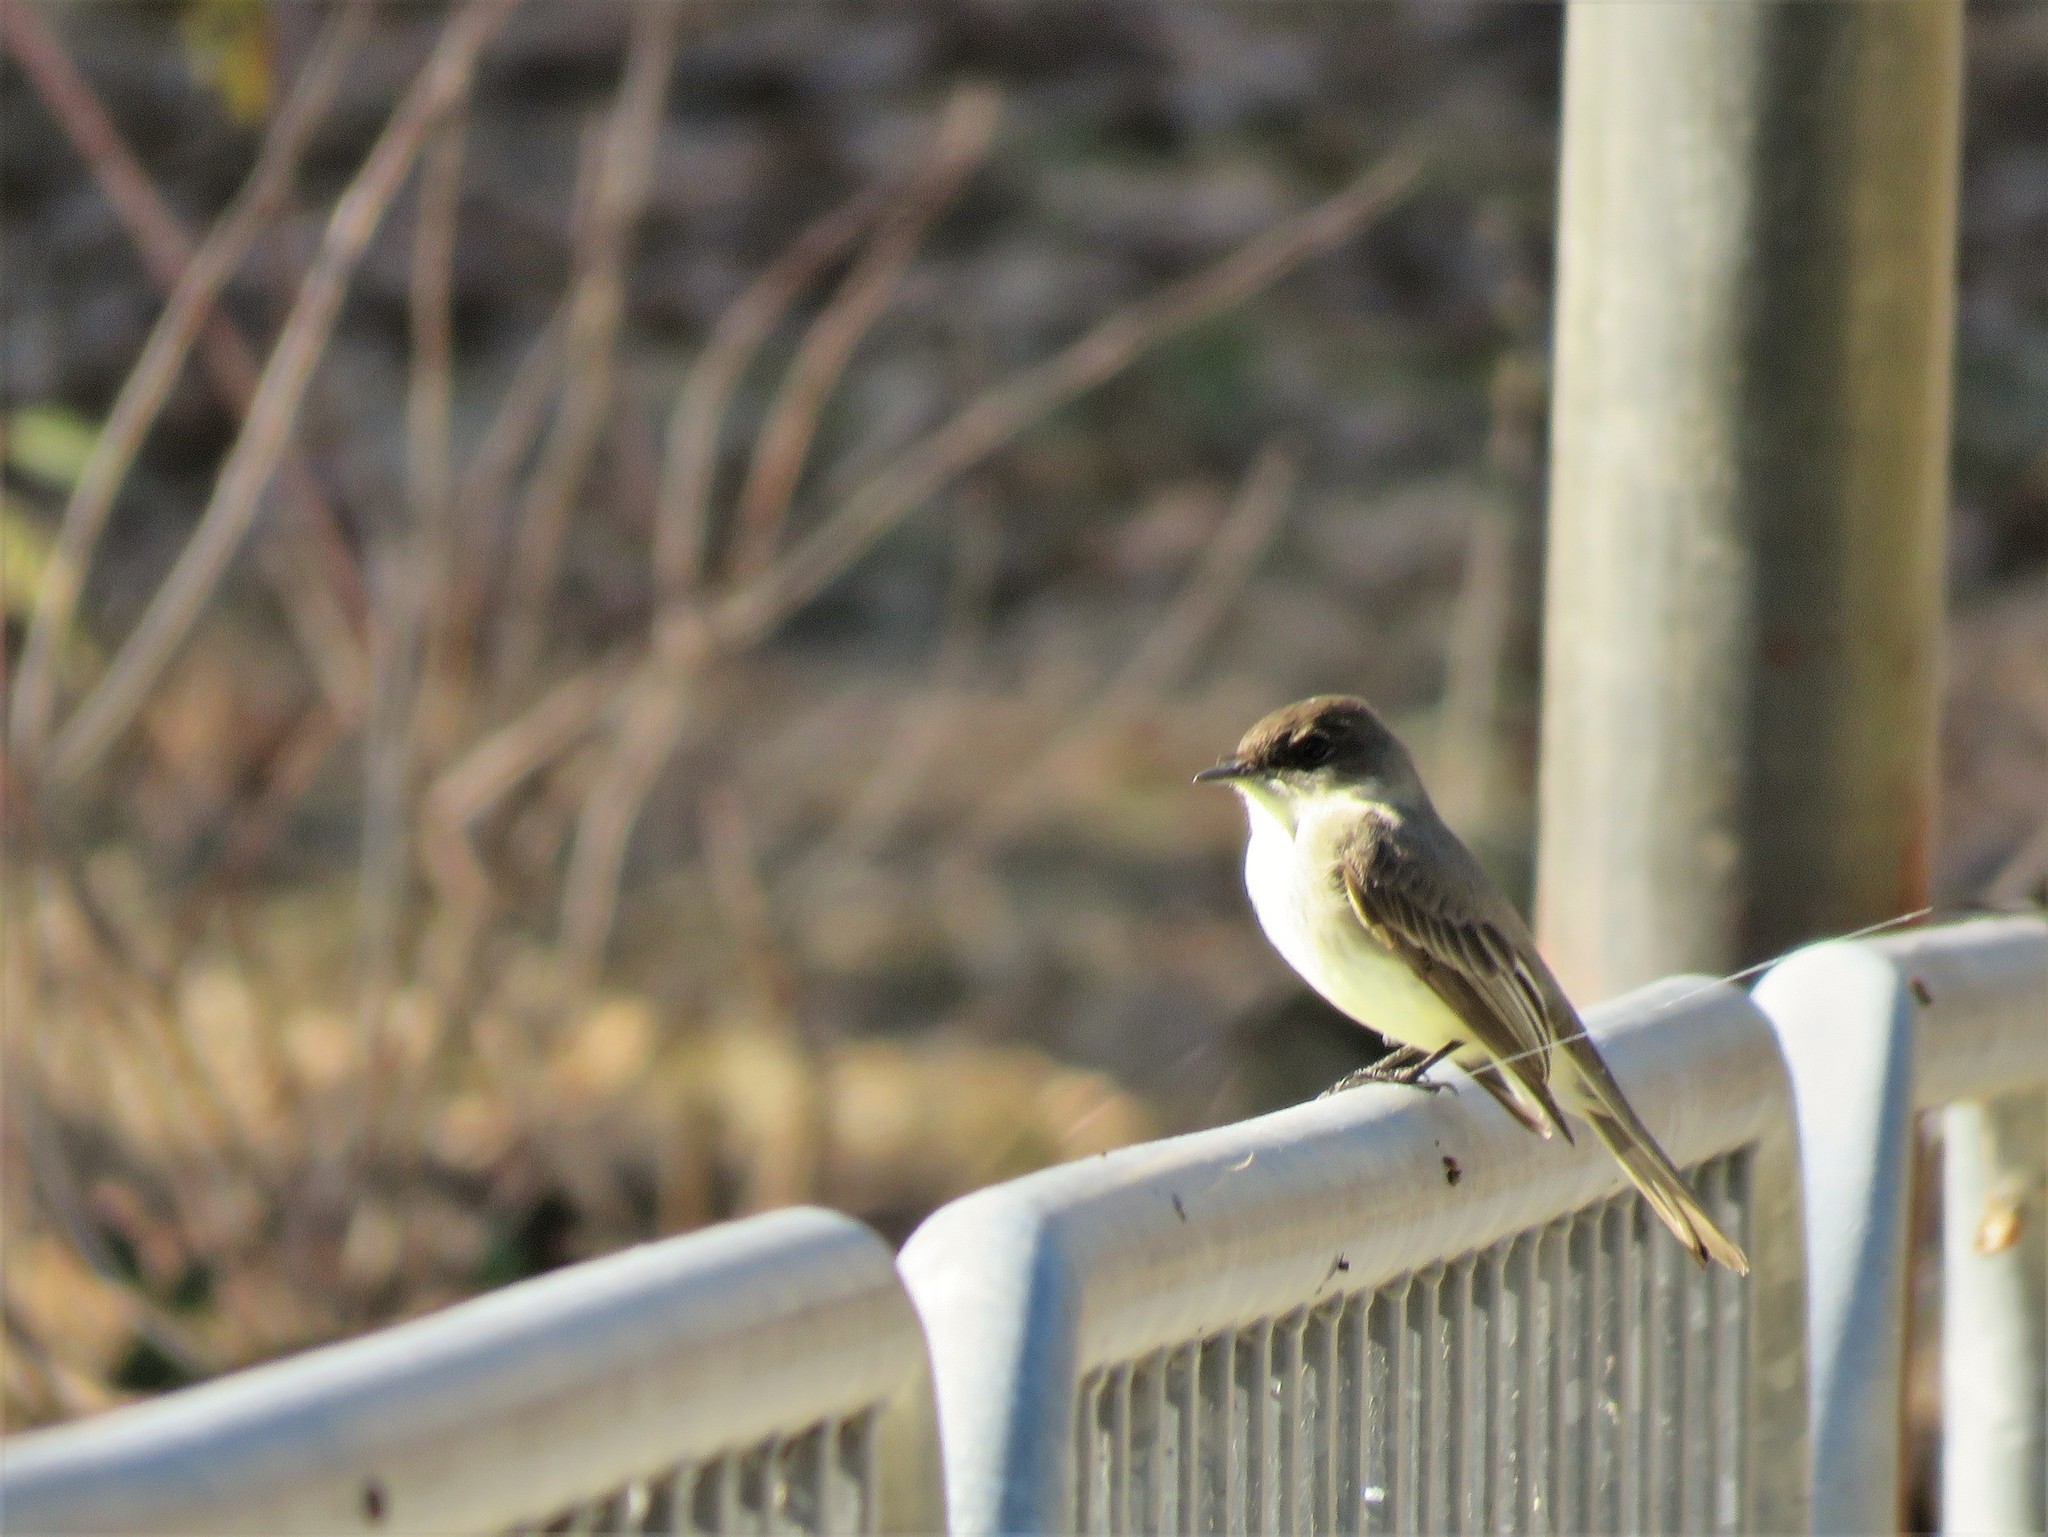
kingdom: Animalia
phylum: Chordata
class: Aves
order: Passeriformes
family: Tyrannidae
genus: Sayornis
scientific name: Sayornis phoebe
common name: Eastern phoebe
